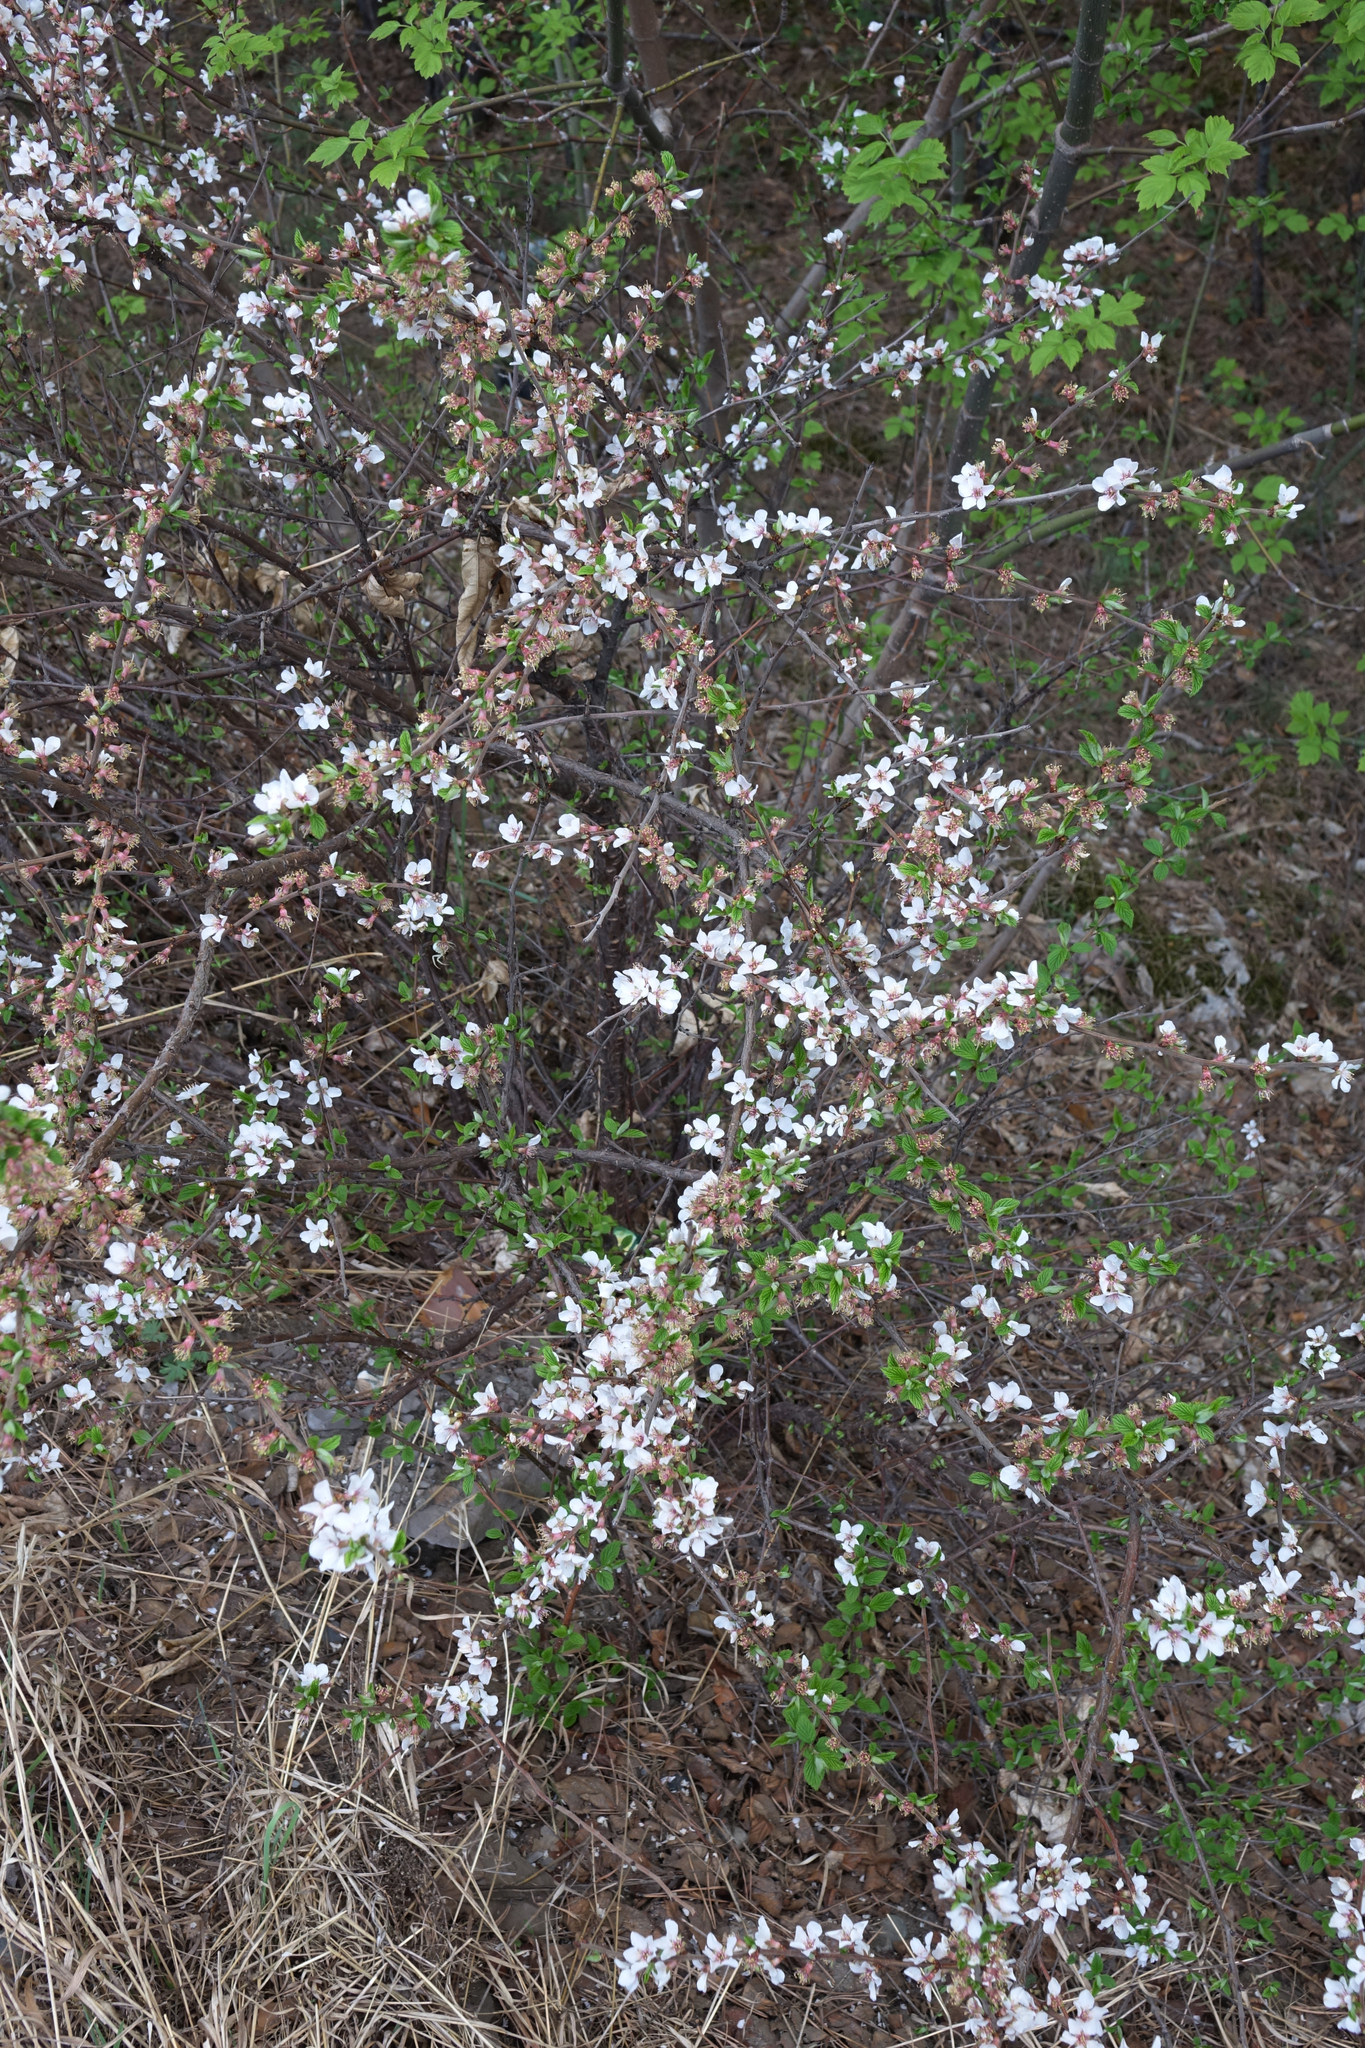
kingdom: Plantae
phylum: Tracheophyta
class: Magnoliopsida
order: Rosales
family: Rosaceae
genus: Prunus
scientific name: Prunus tomentosa
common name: Nanking cherry
